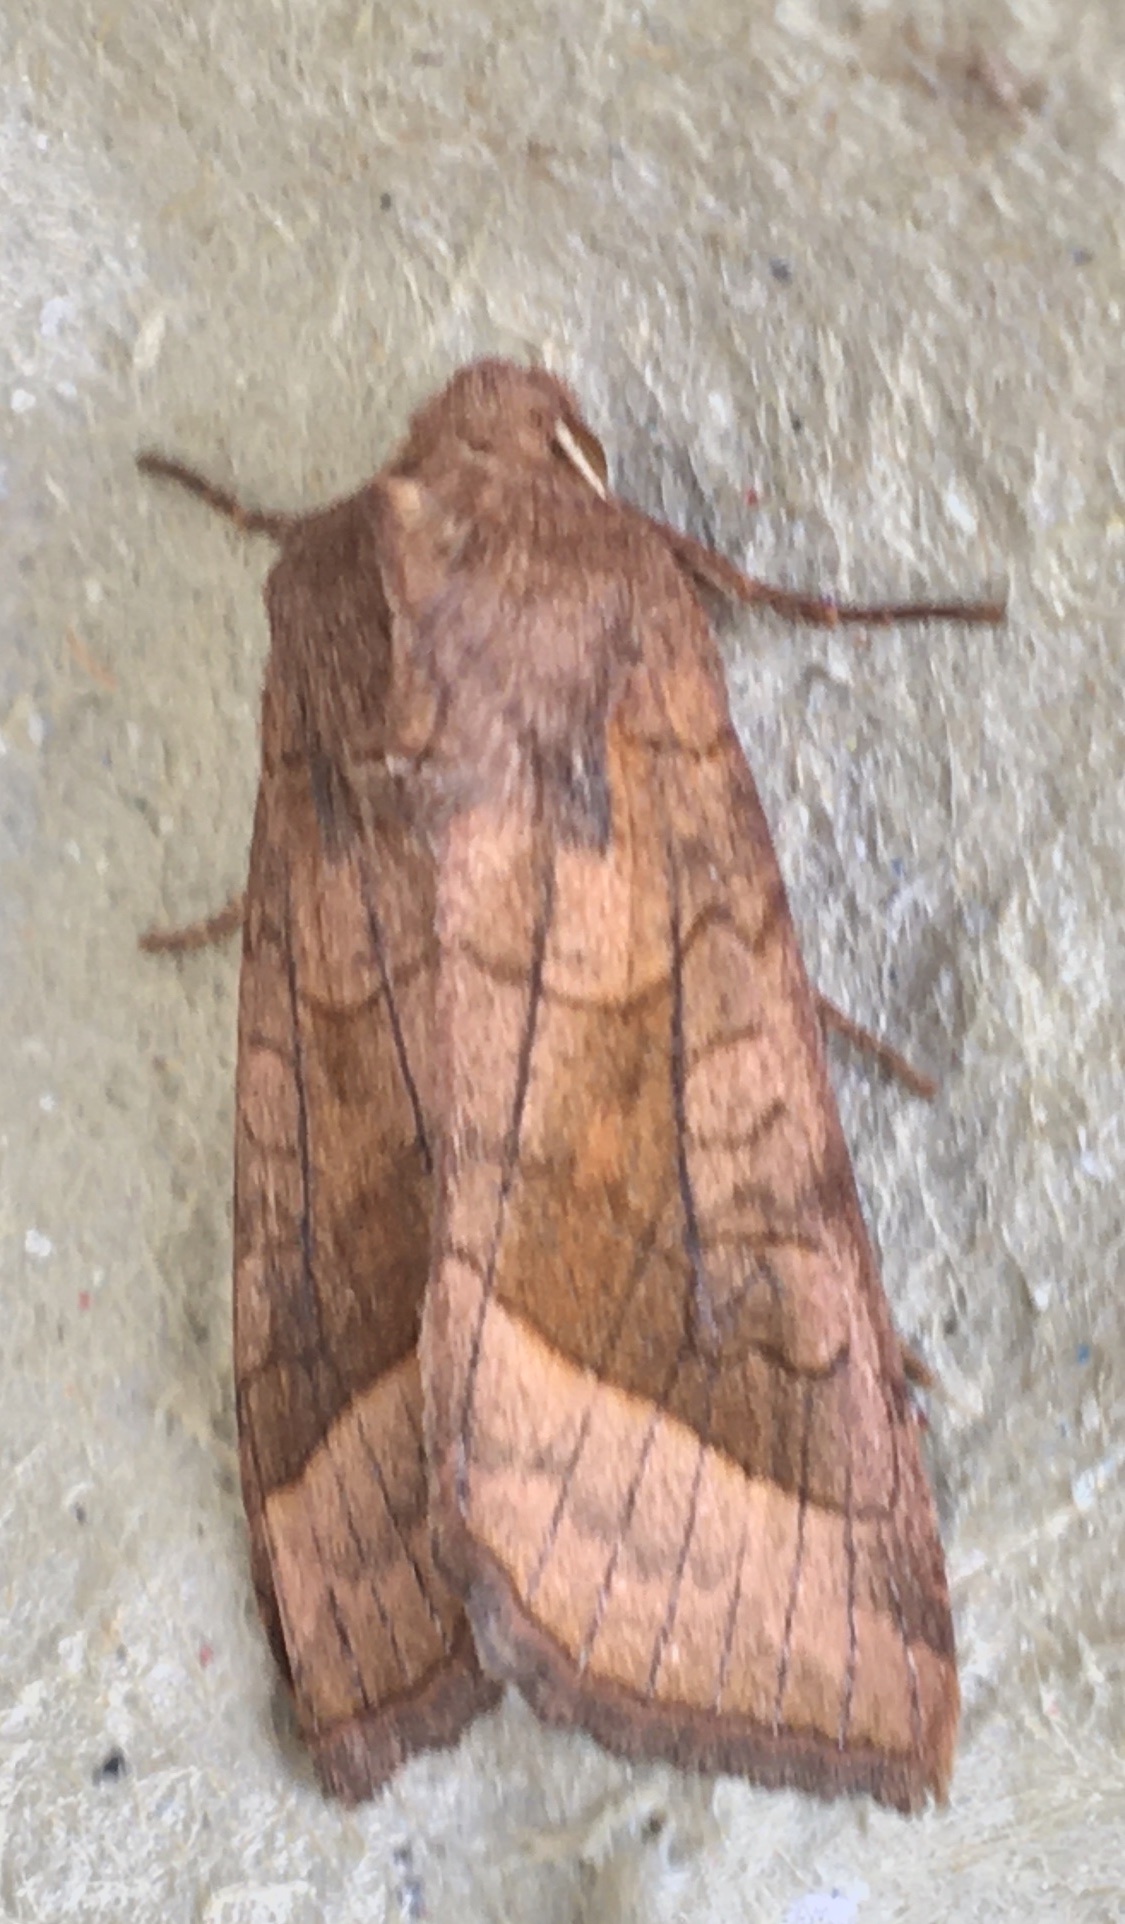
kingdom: Animalia
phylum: Arthropoda
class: Insecta
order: Lepidoptera
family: Noctuidae
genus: Hydraecia
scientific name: Hydraecia micacea
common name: Rosy rustic
